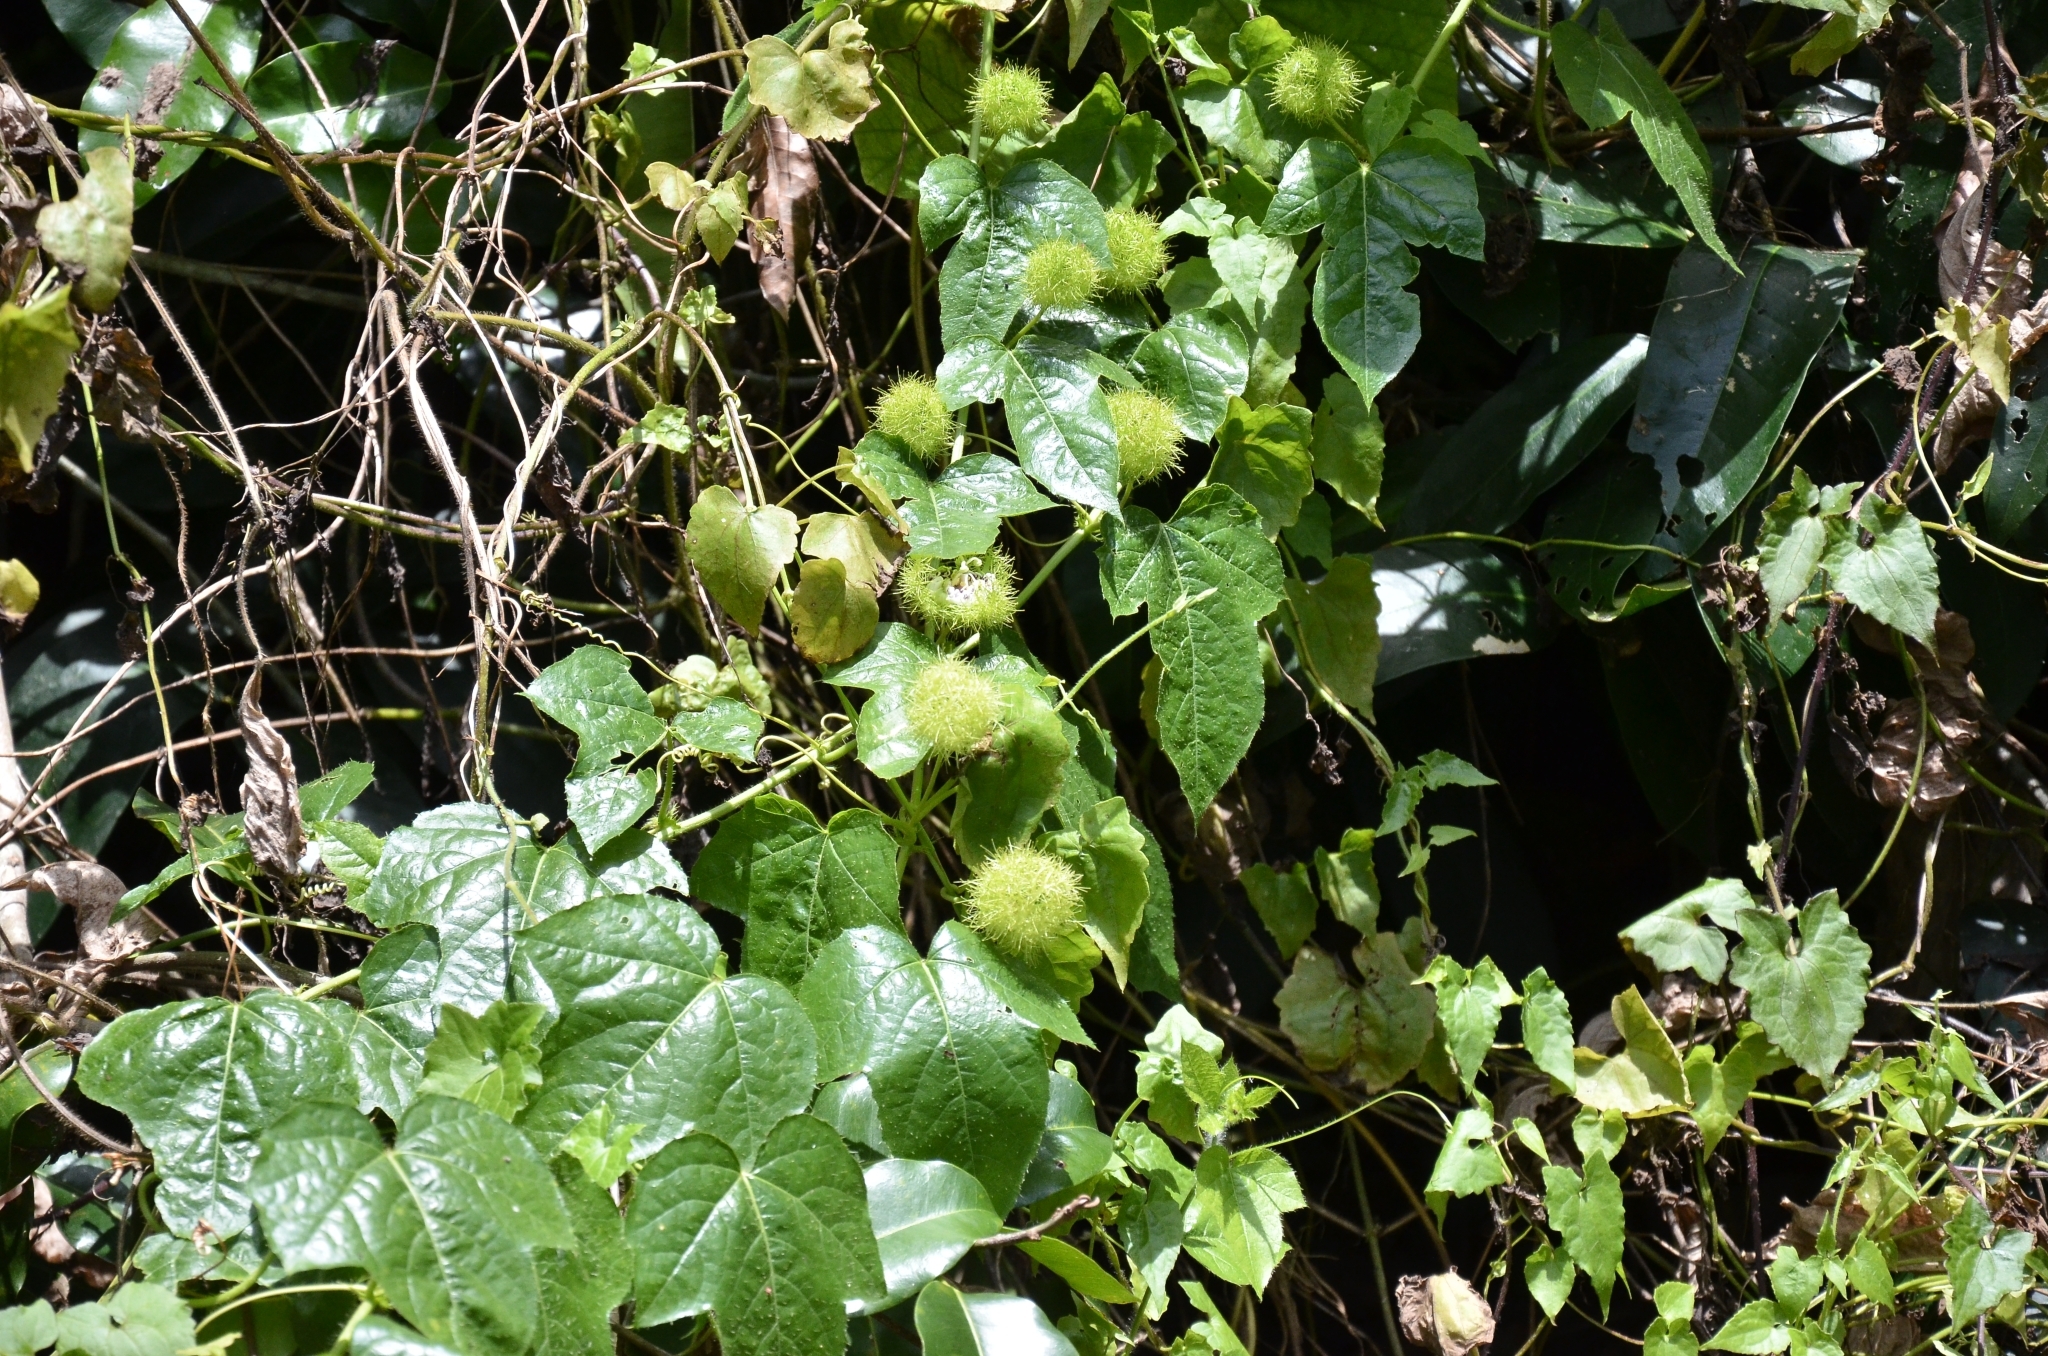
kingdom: Plantae
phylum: Tracheophyta
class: Magnoliopsida
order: Malpighiales
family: Passifloraceae
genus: Passiflora
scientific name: Passiflora vesicaria
